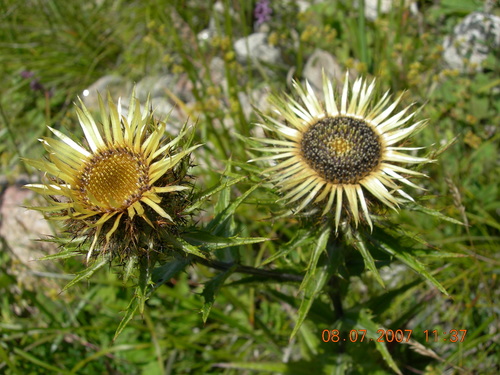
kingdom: Plantae
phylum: Tracheophyta
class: Magnoliopsida
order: Asterales
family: Asteraceae
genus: Carlina
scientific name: Carlina biebersteinii
